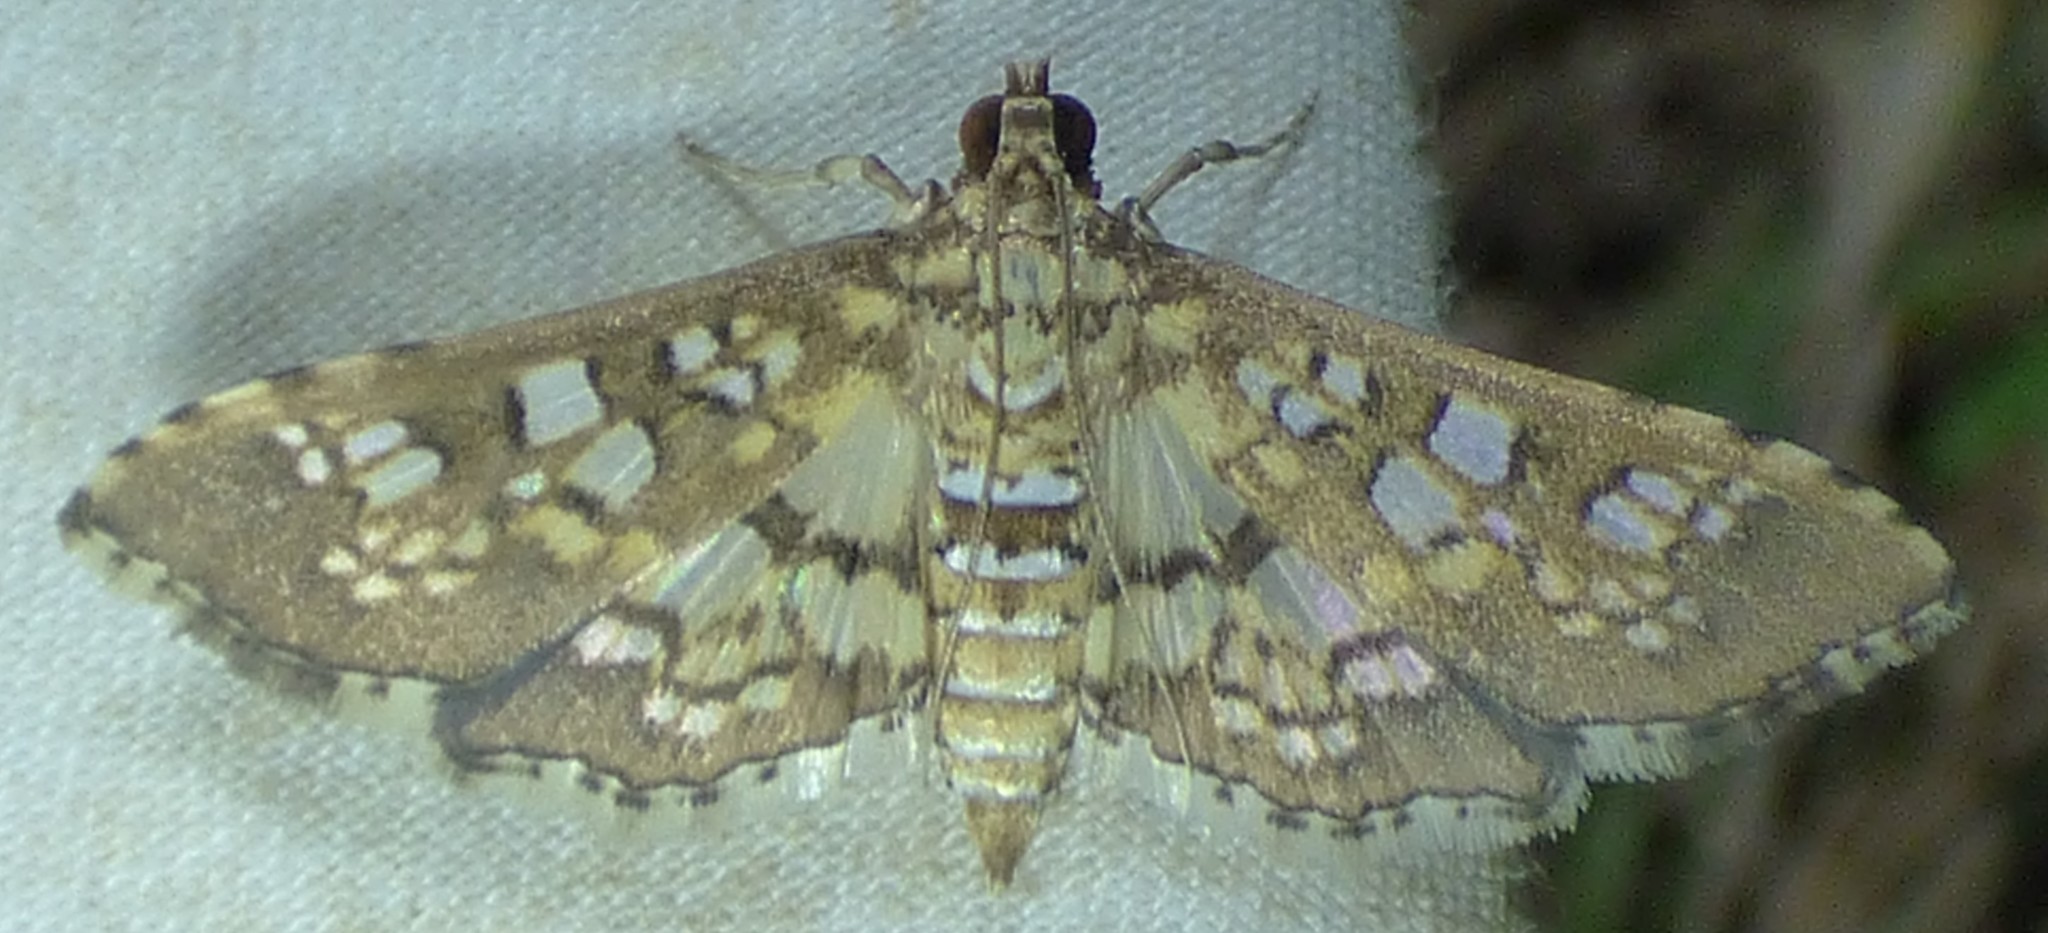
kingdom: Animalia
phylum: Arthropoda
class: Insecta
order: Lepidoptera
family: Crambidae
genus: Samea
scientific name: Samea ecclesialis
